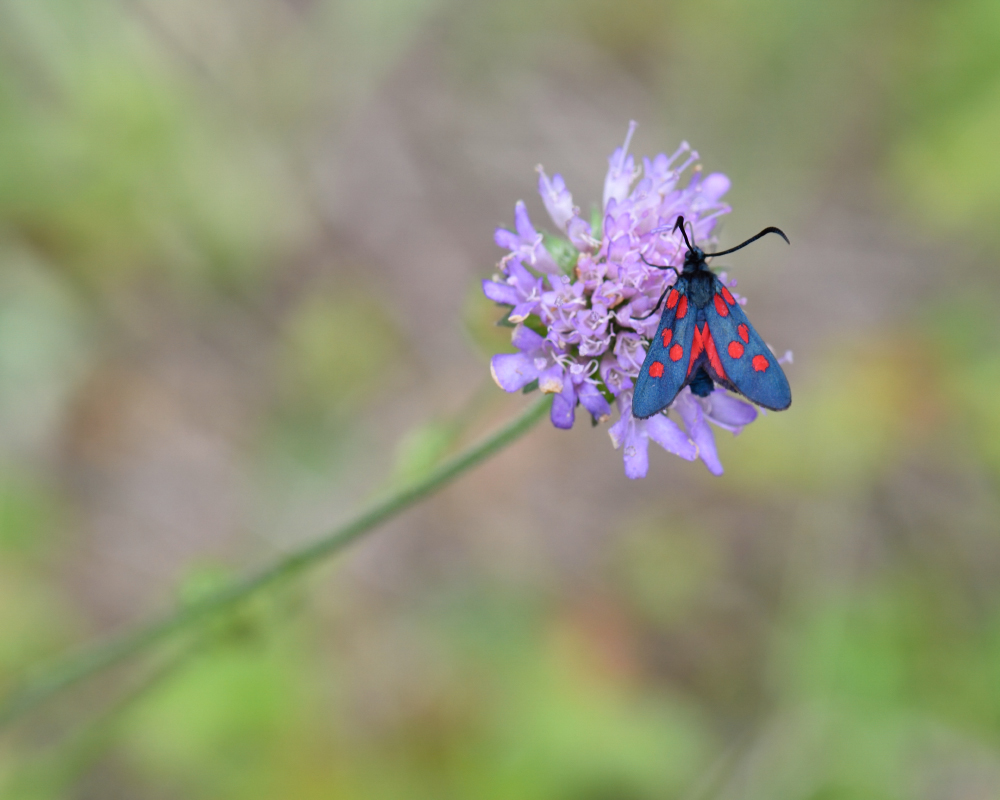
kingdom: Animalia
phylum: Arthropoda
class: Insecta
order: Lepidoptera
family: Zygaenidae
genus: Zygaena
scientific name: Zygaena angelicae
